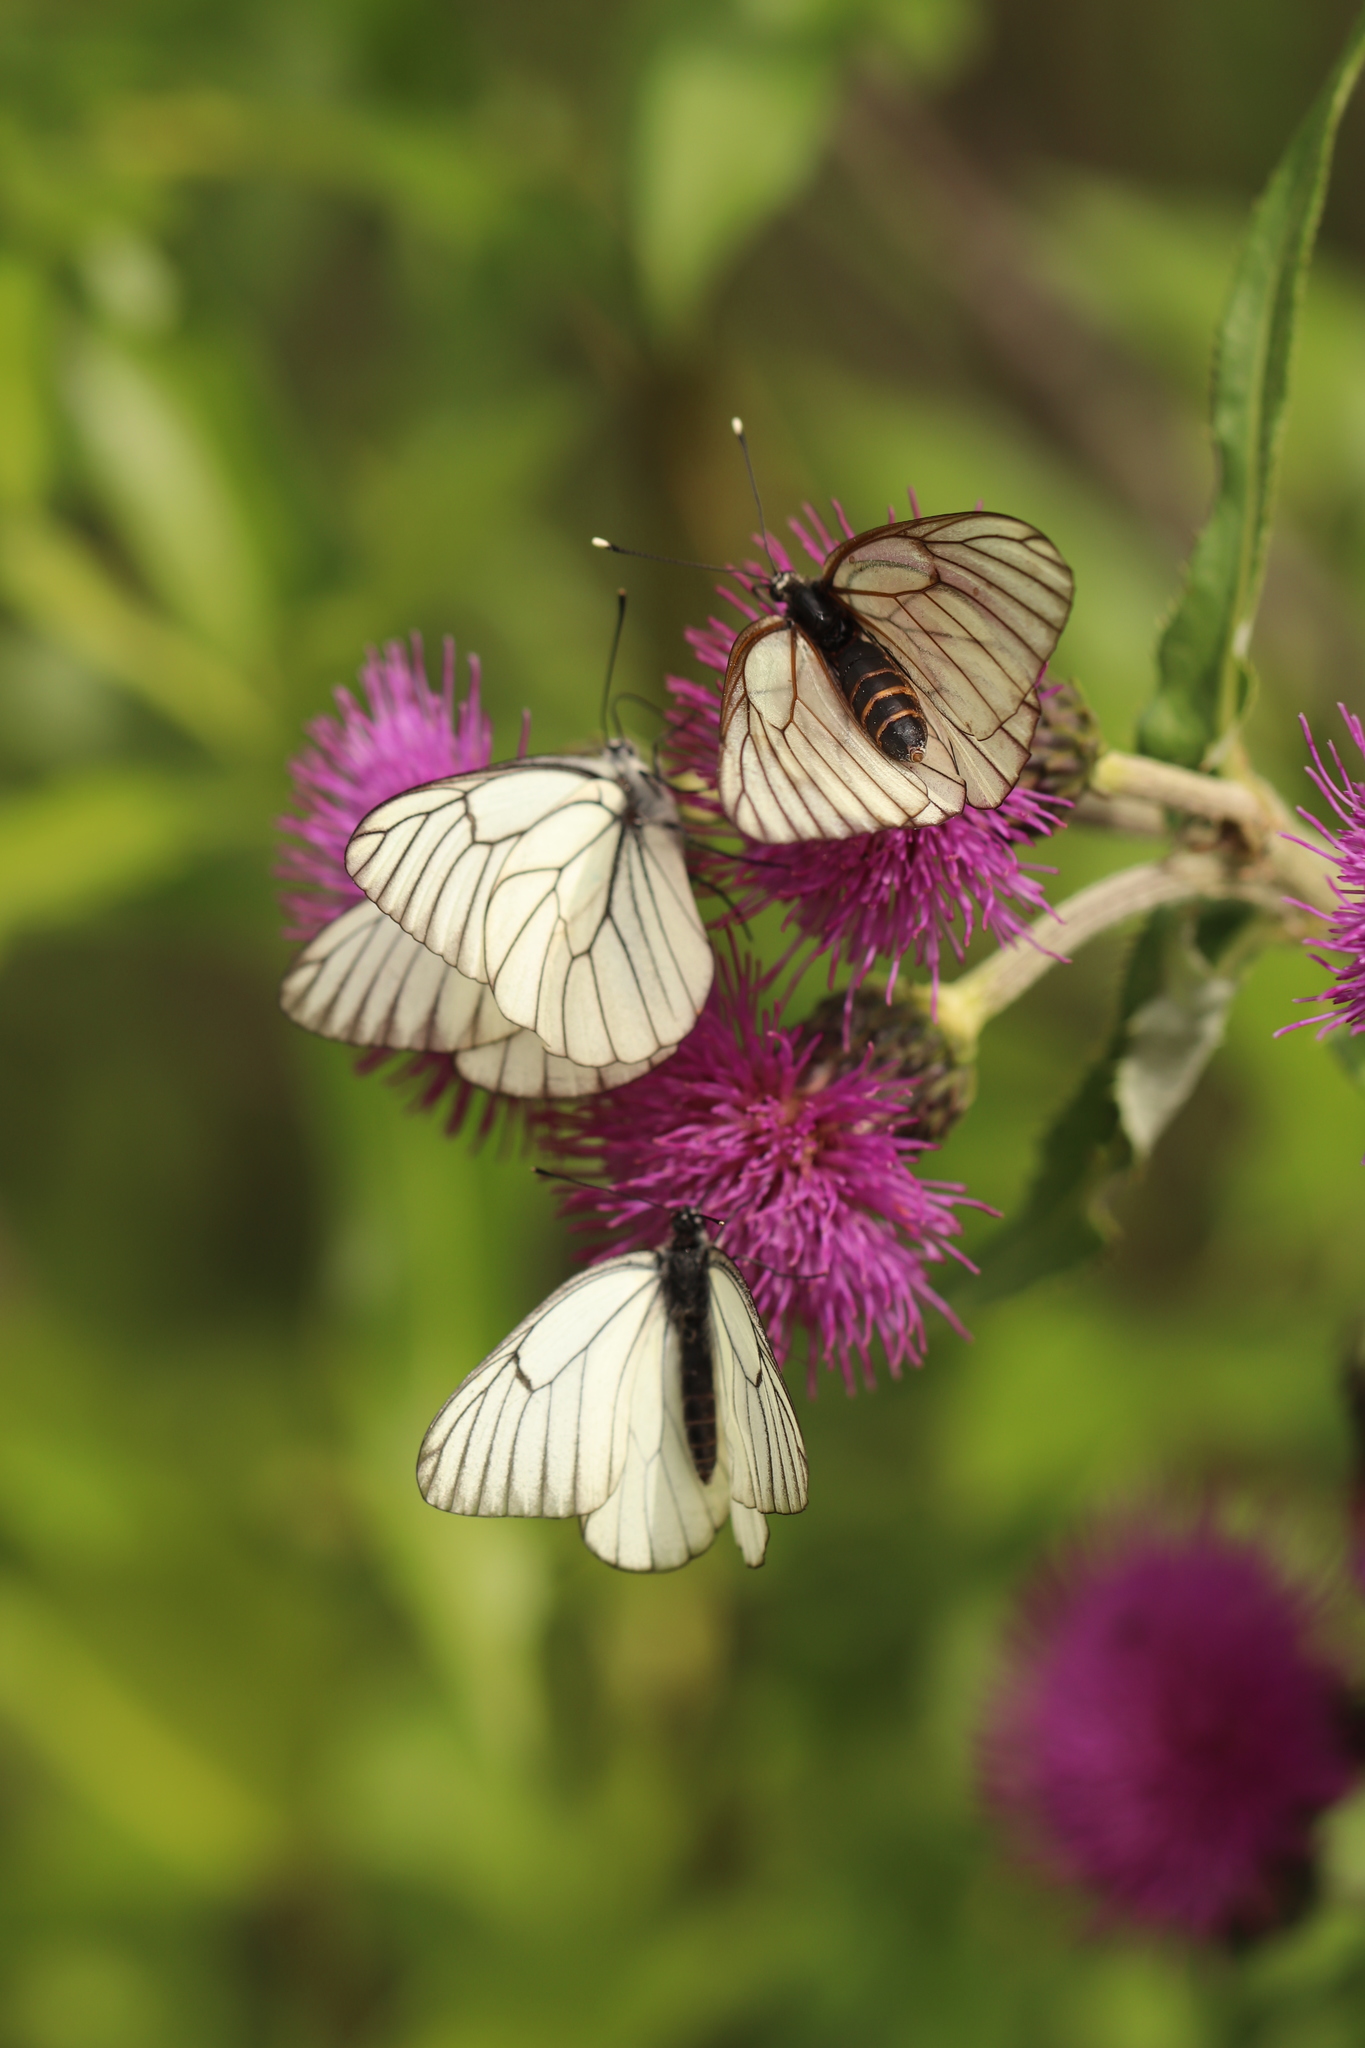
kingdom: Animalia
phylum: Arthropoda
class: Insecta
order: Lepidoptera
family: Pieridae
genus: Aporia
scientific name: Aporia crataegi
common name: Black-veined white
